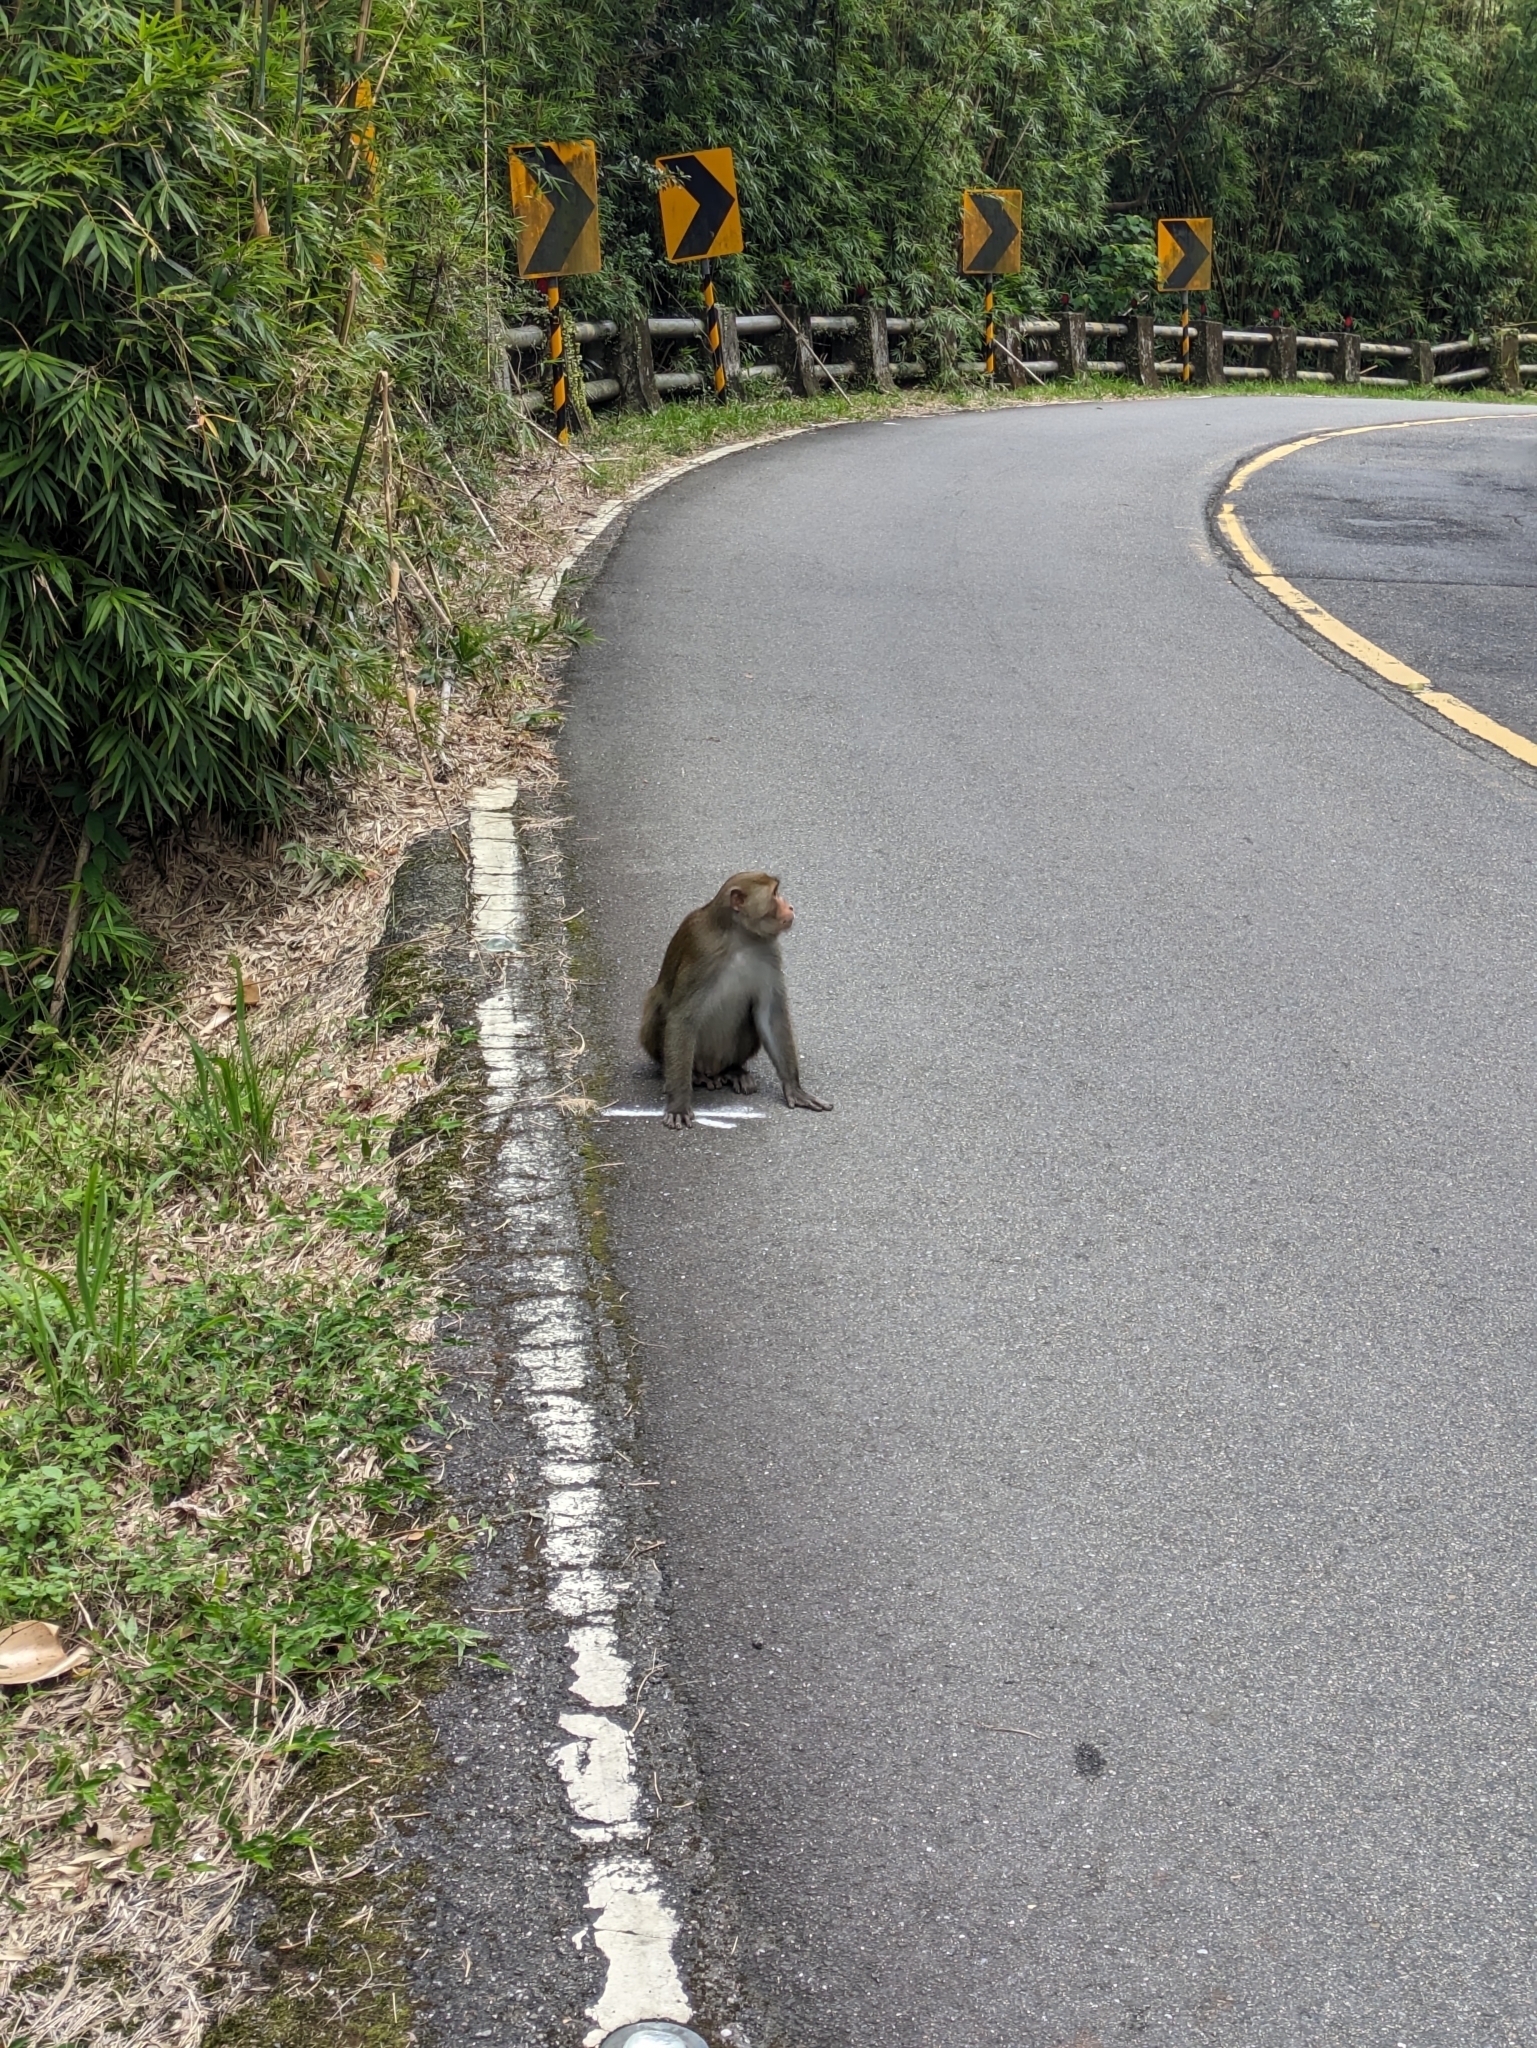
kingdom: Animalia
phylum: Chordata
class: Mammalia
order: Primates
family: Cercopithecidae
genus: Macaca
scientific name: Macaca cyclopis
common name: Formosan rock macaque
